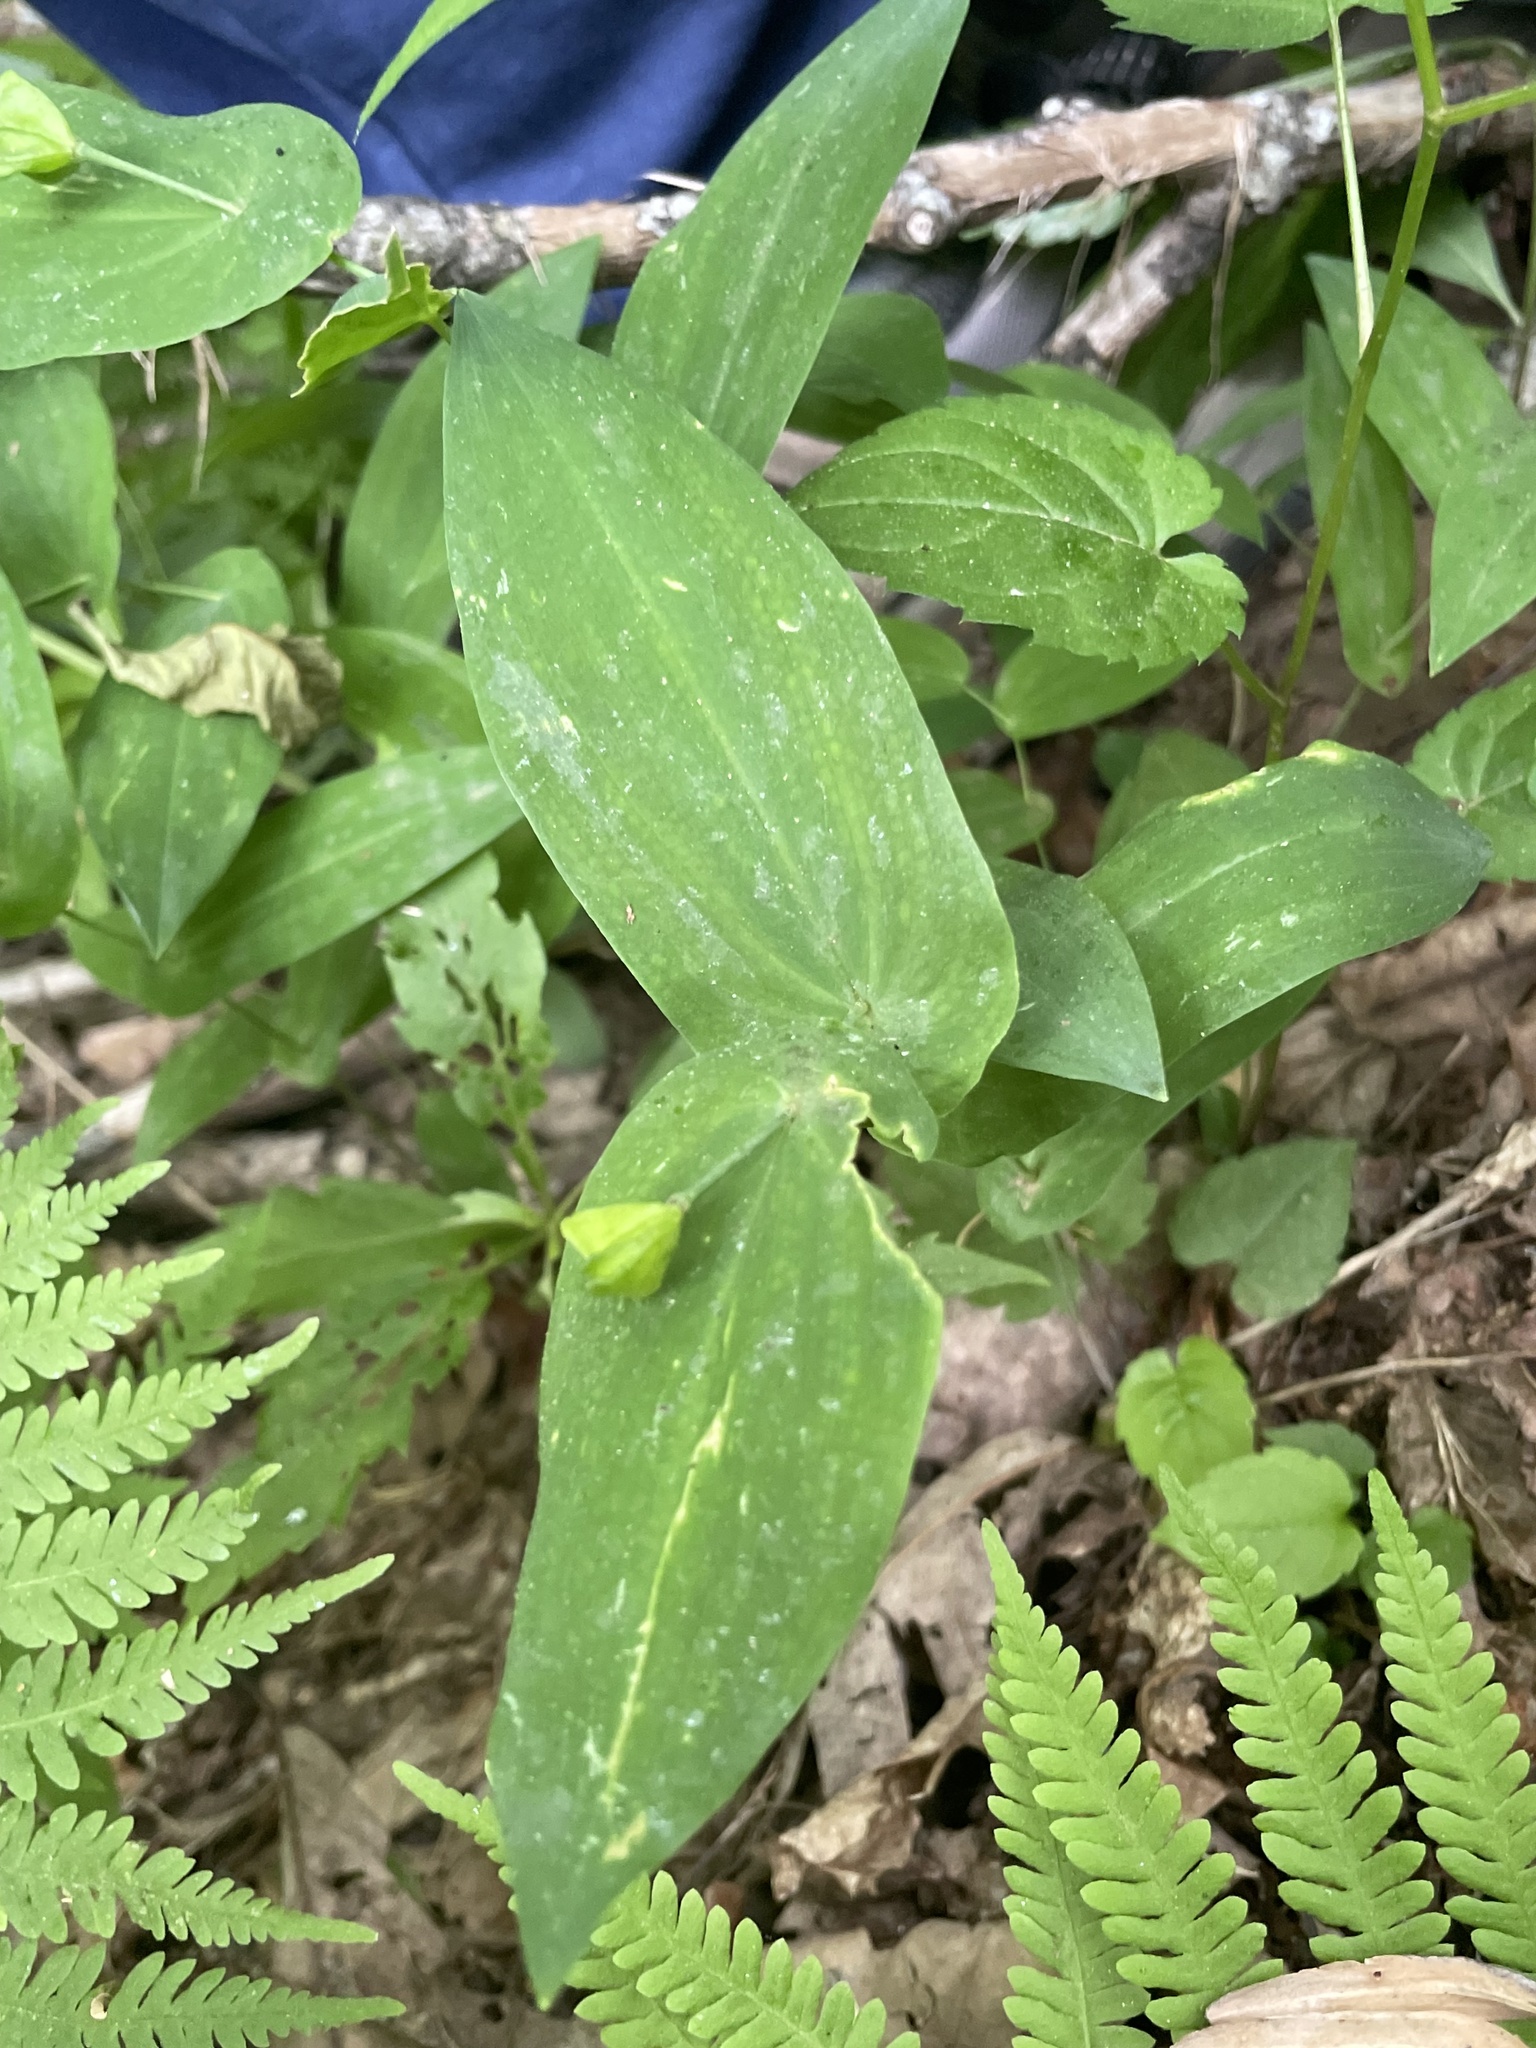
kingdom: Plantae
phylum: Tracheophyta
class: Liliopsida
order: Liliales
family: Colchicaceae
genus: Uvularia
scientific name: Uvularia perfoliata
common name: Perfoliate bellwort
